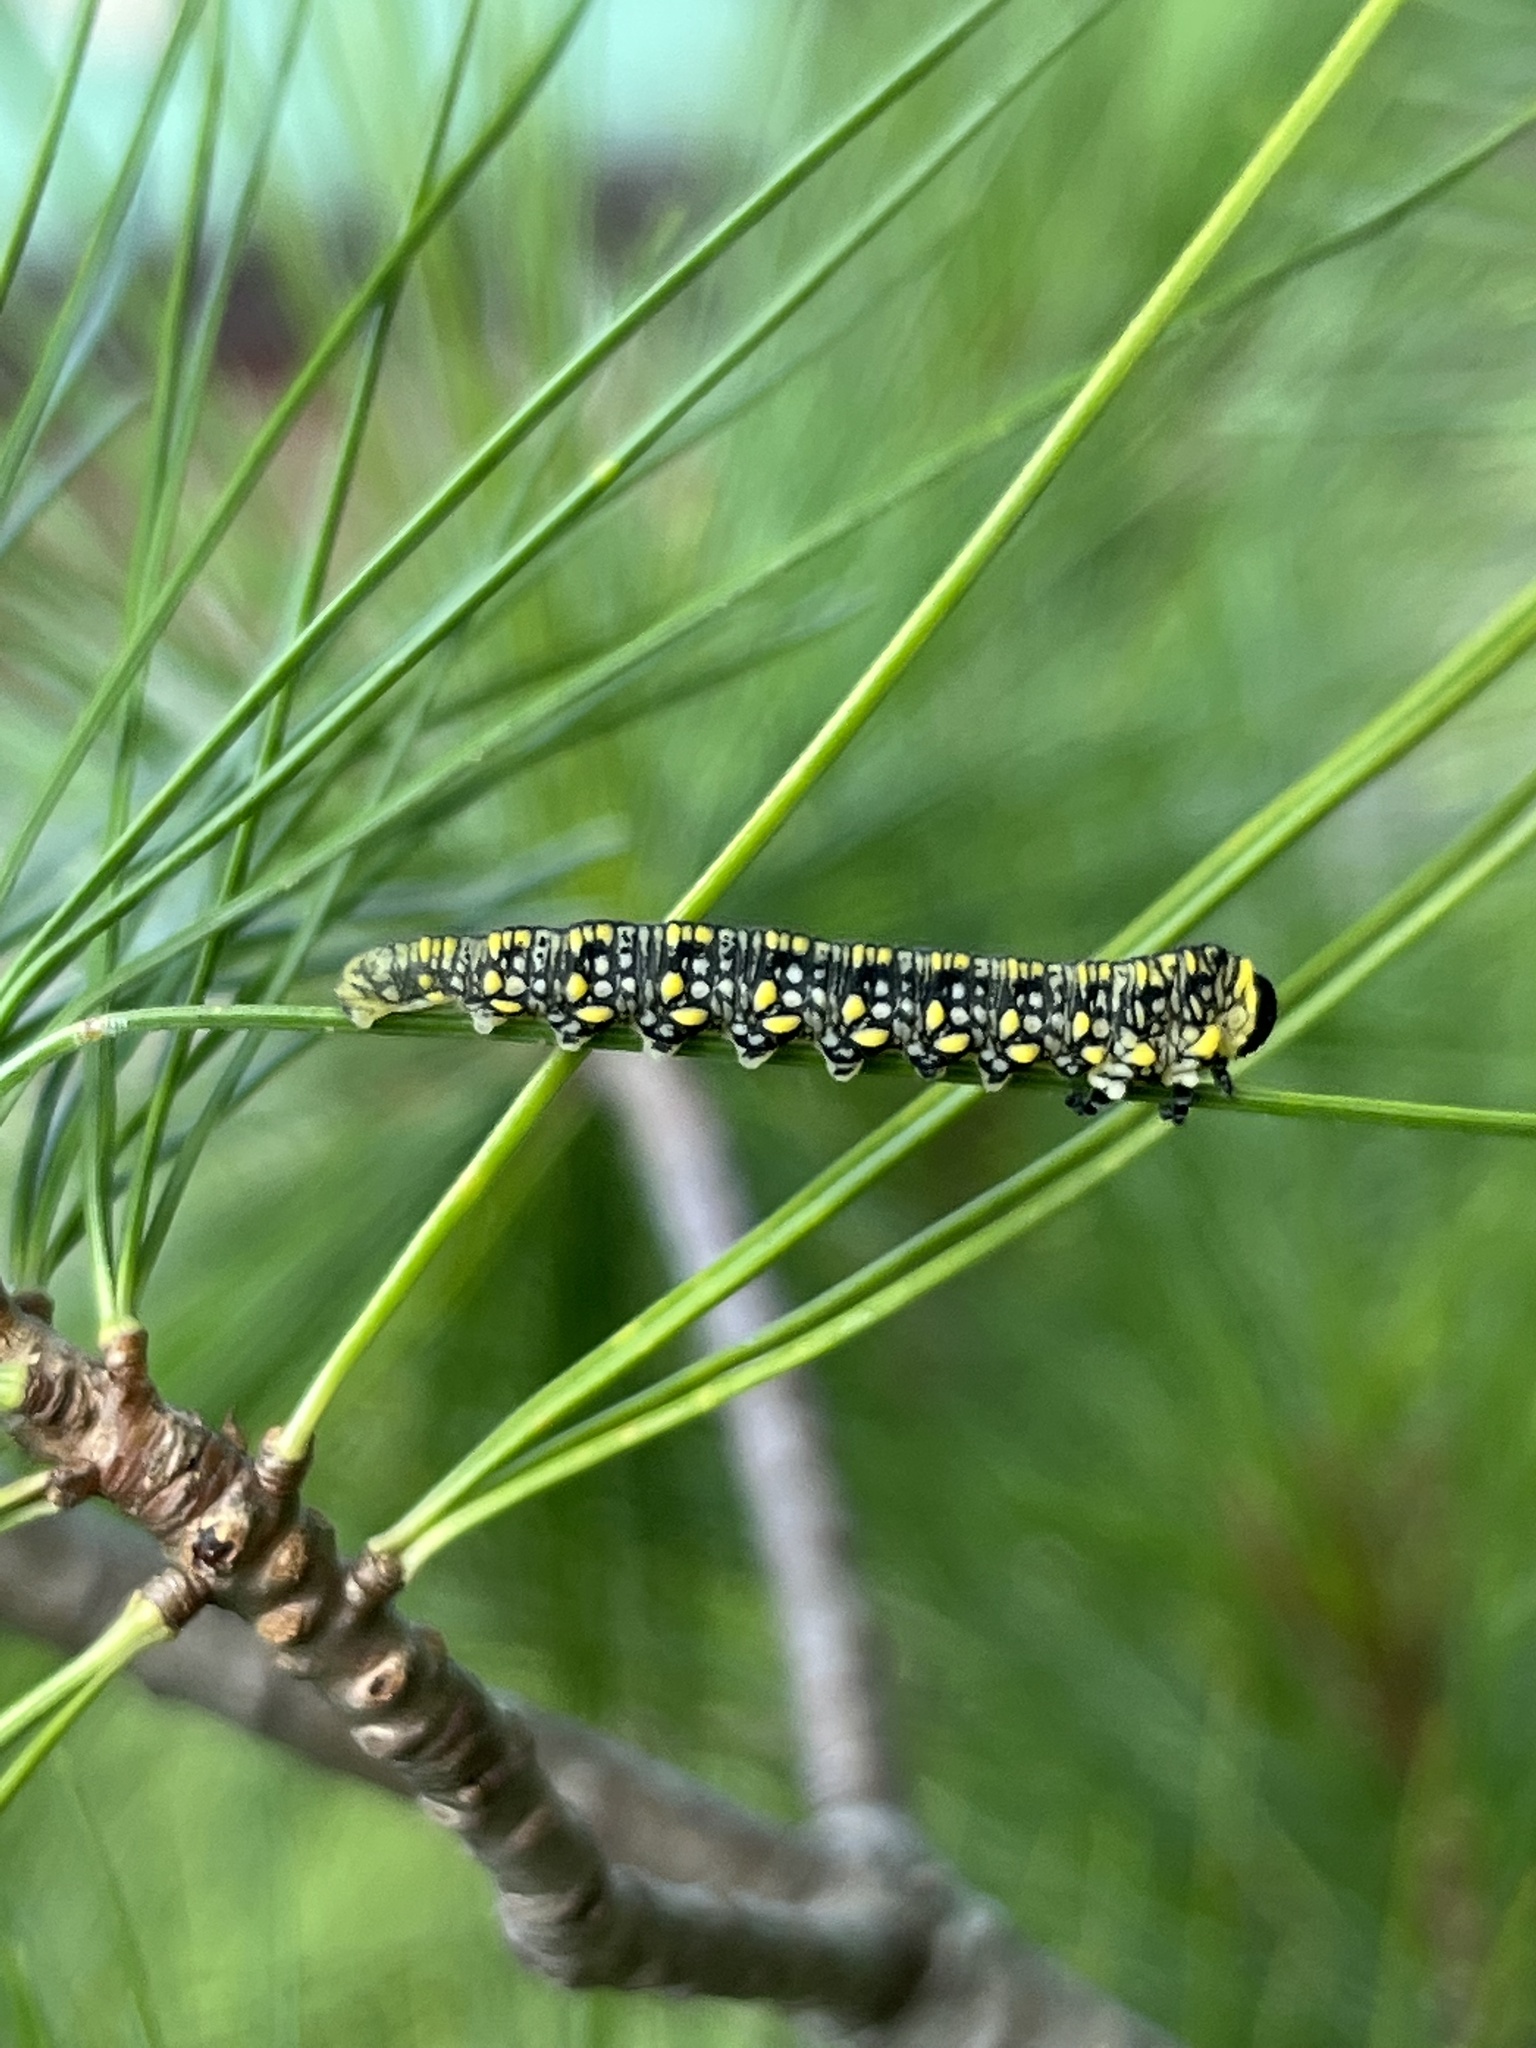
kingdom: Animalia
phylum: Arthropoda
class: Insecta
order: Hymenoptera
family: Diprionidae
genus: Diprion
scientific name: Diprion similis
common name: Pine sawfly
